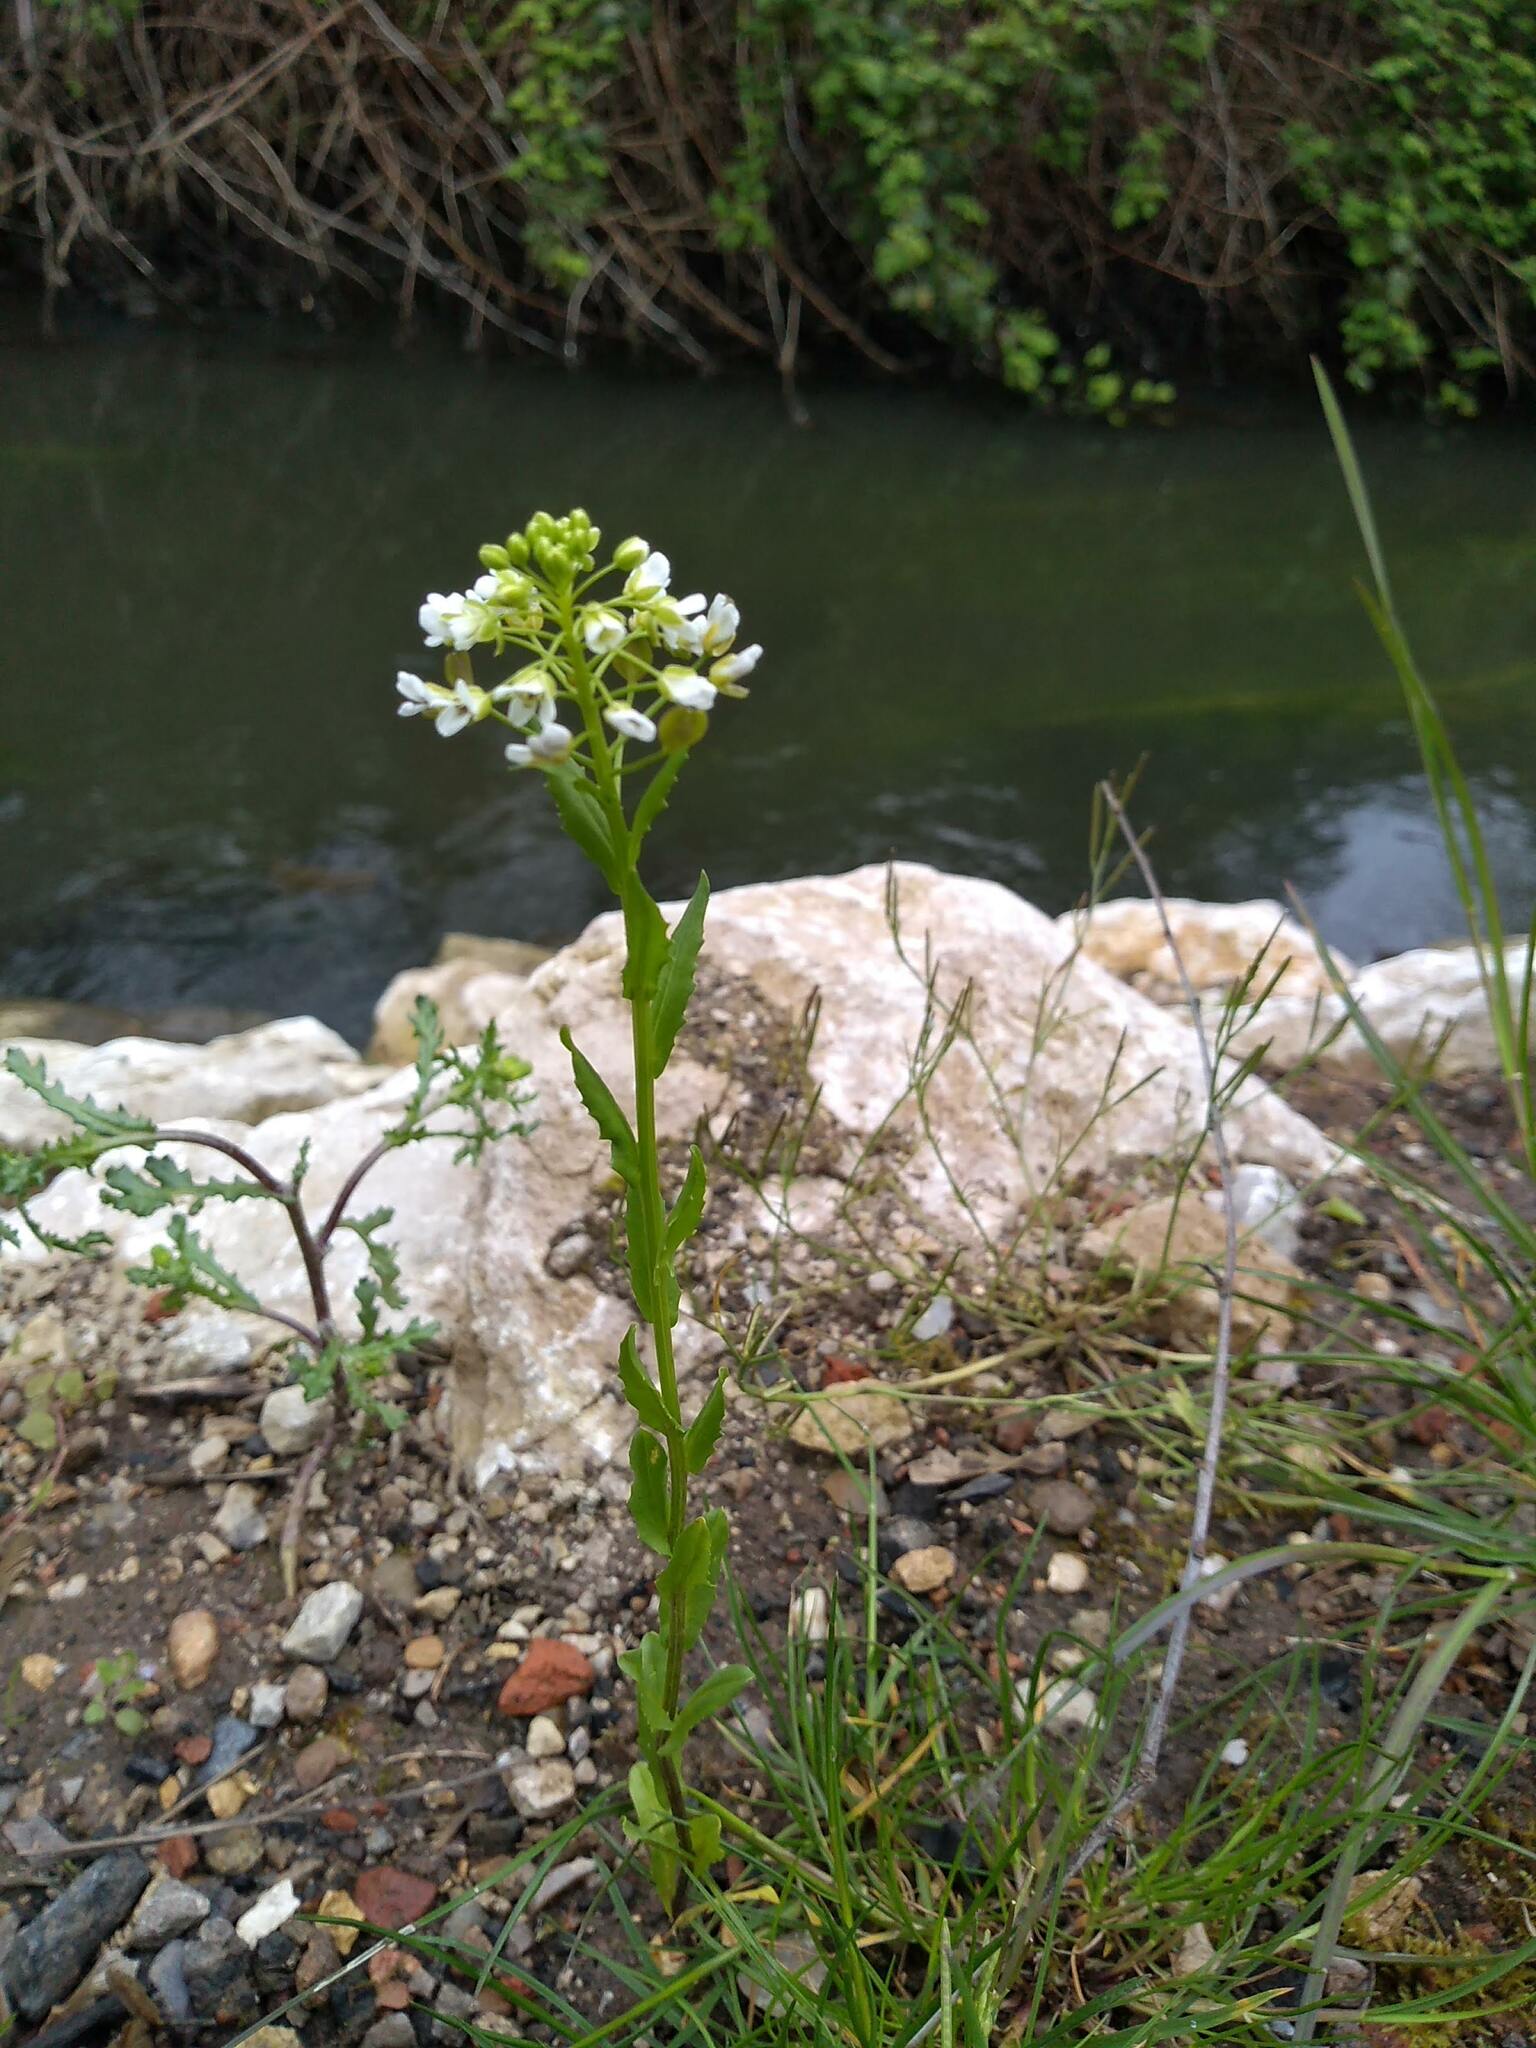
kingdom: Plantae
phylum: Tracheophyta
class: Magnoliopsida
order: Brassicales
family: Brassicaceae
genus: Thlaspi
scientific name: Thlaspi arvense
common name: Field pennycress
